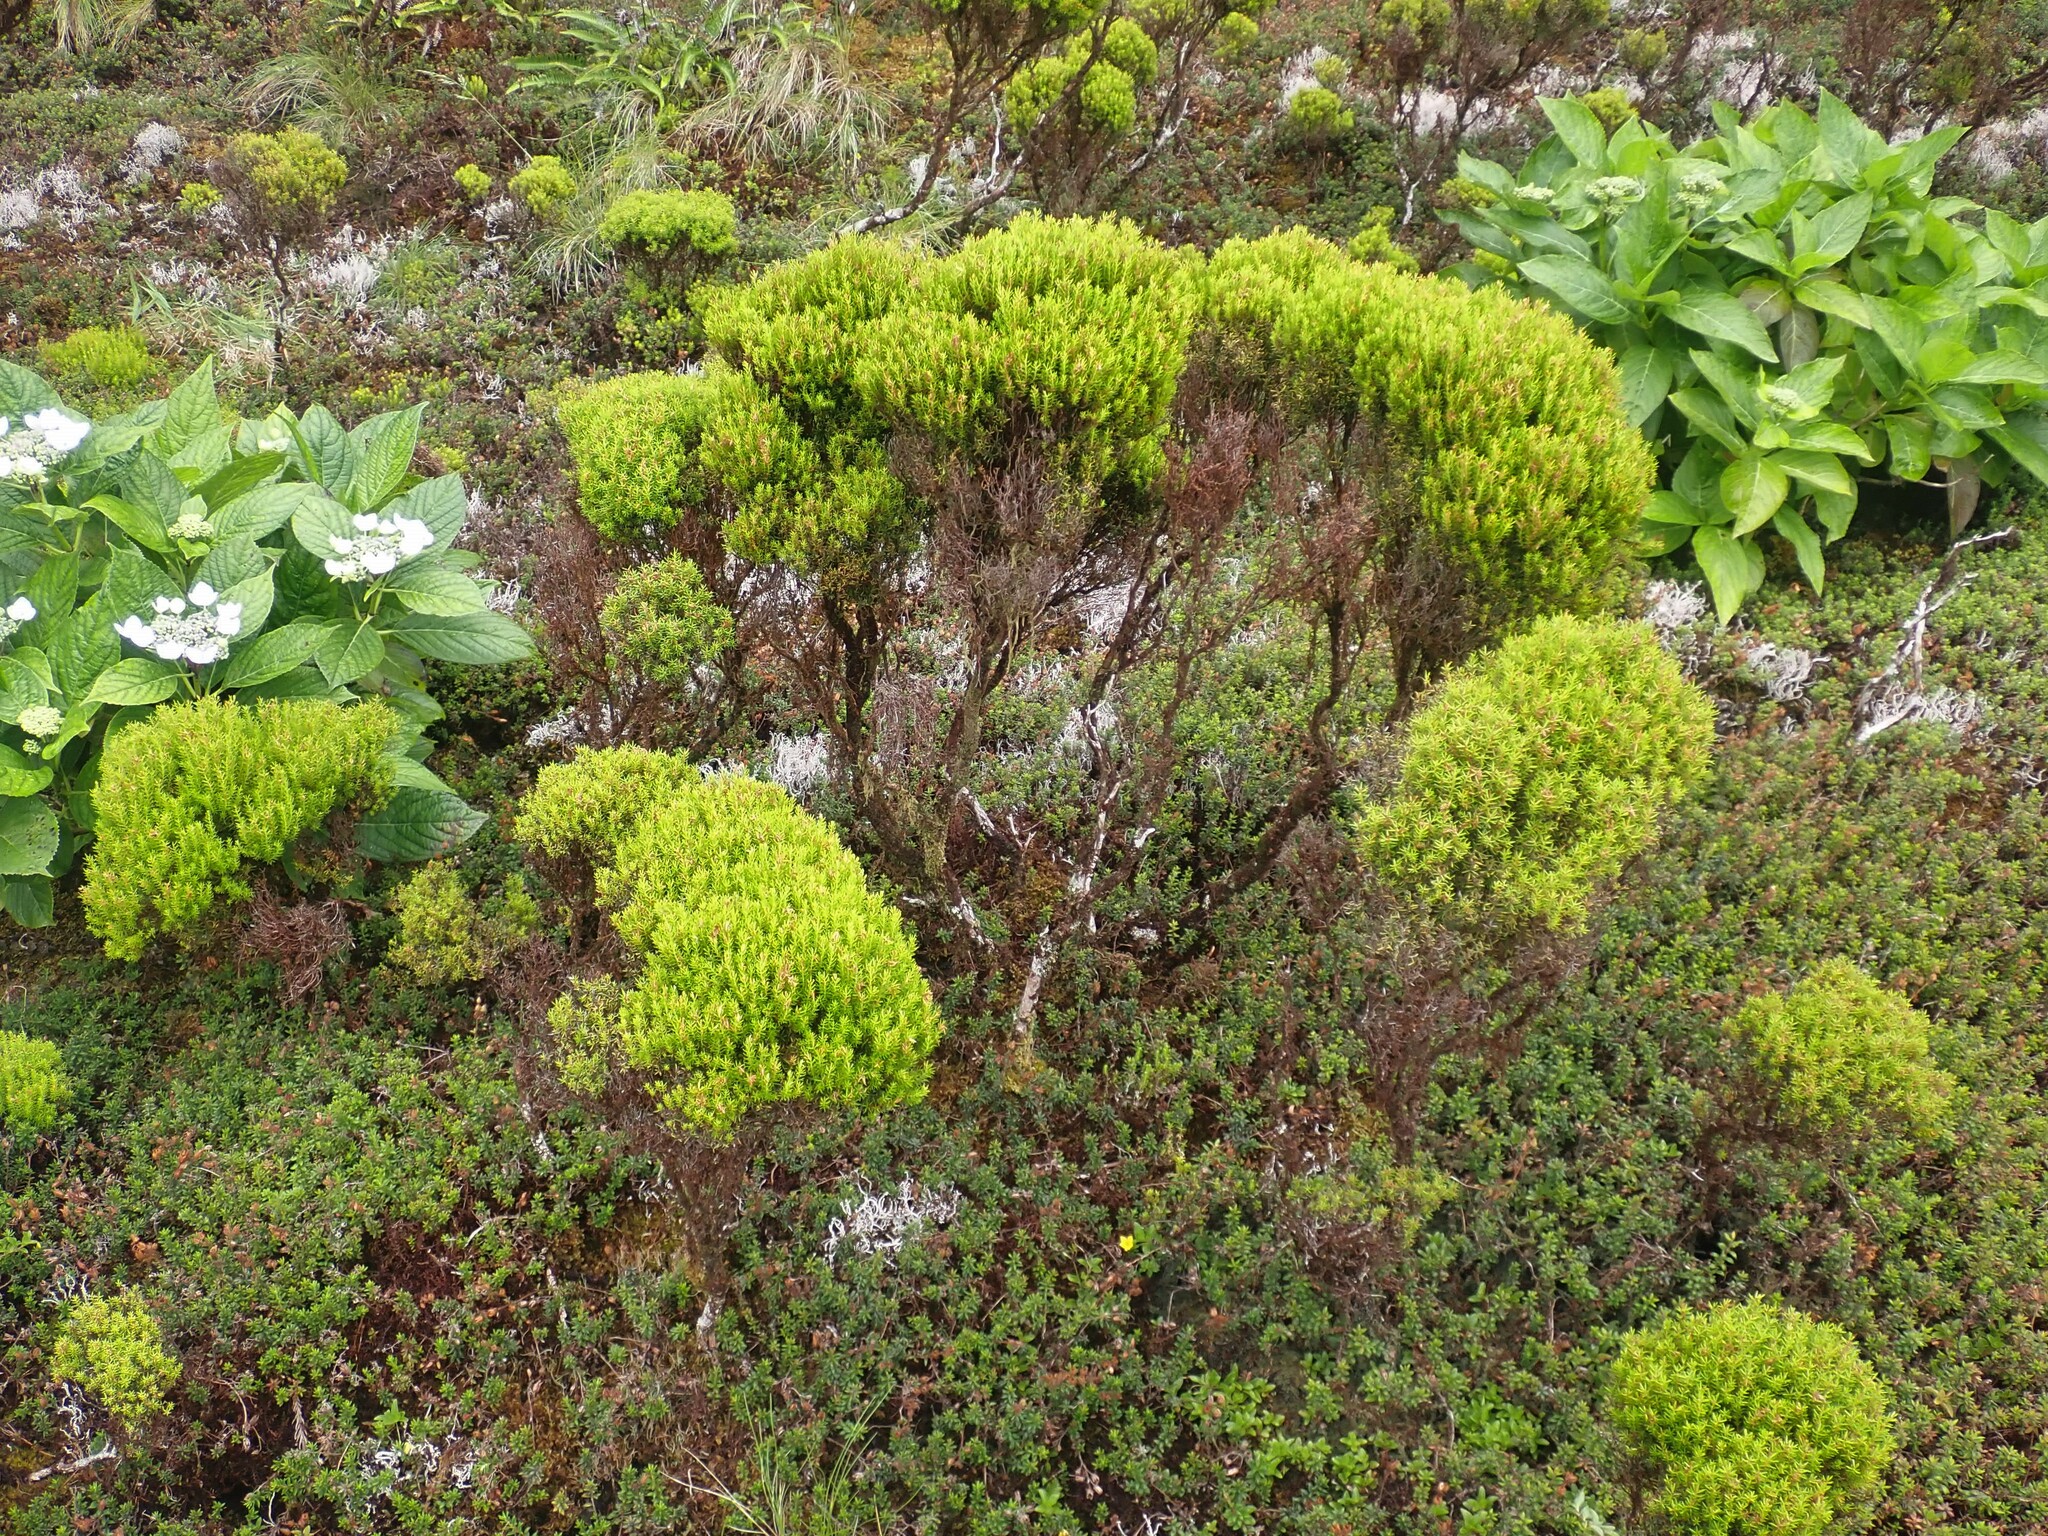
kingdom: Plantae
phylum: Tracheophyta
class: Magnoliopsida
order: Ericales
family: Ericaceae
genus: Erica
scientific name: Erica azorica
